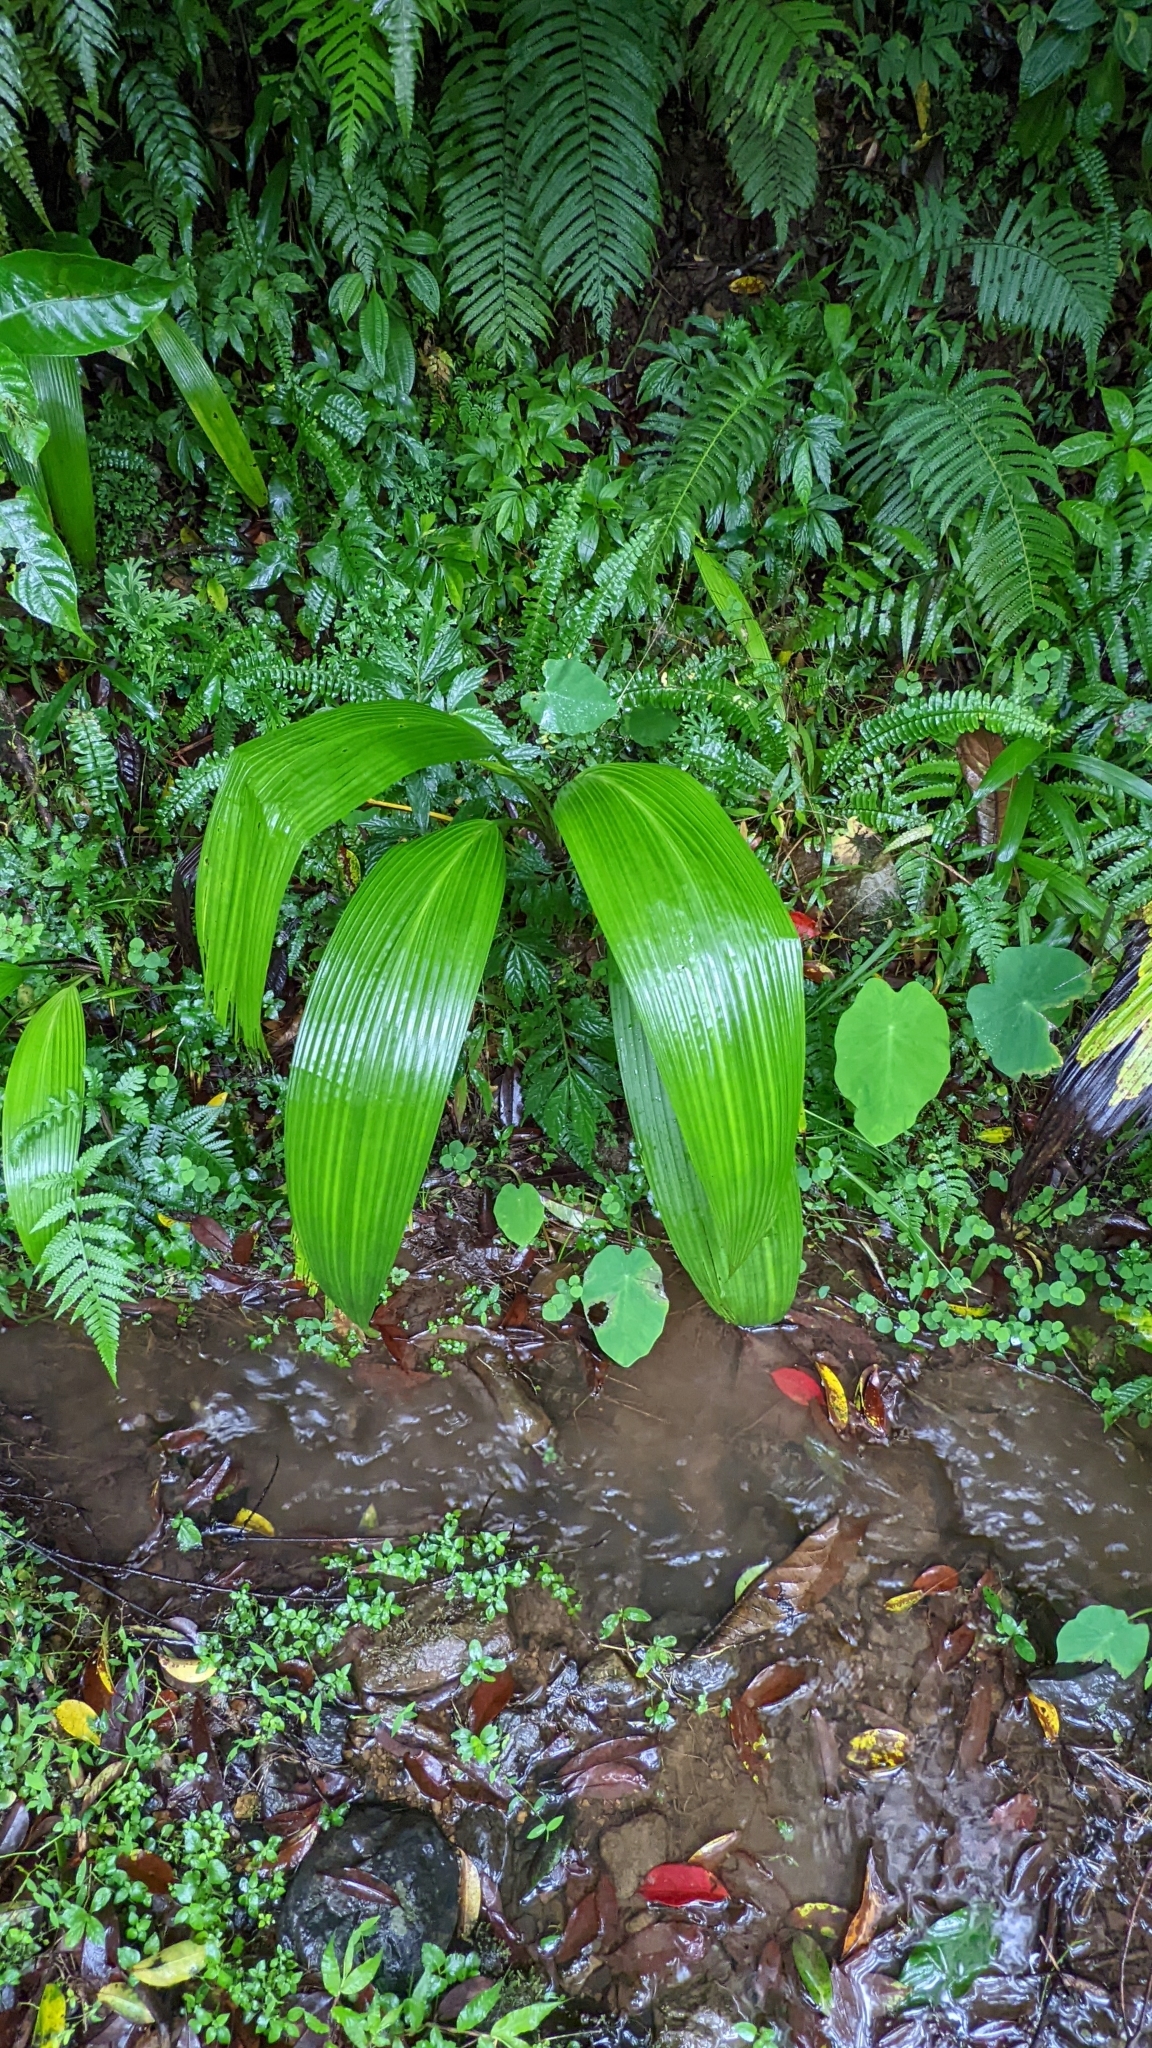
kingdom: Plantae
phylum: Tracheophyta
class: Liliopsida
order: Asparagales
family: Hypoxidaceae
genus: Curculigo
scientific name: Curculigo capitulata
